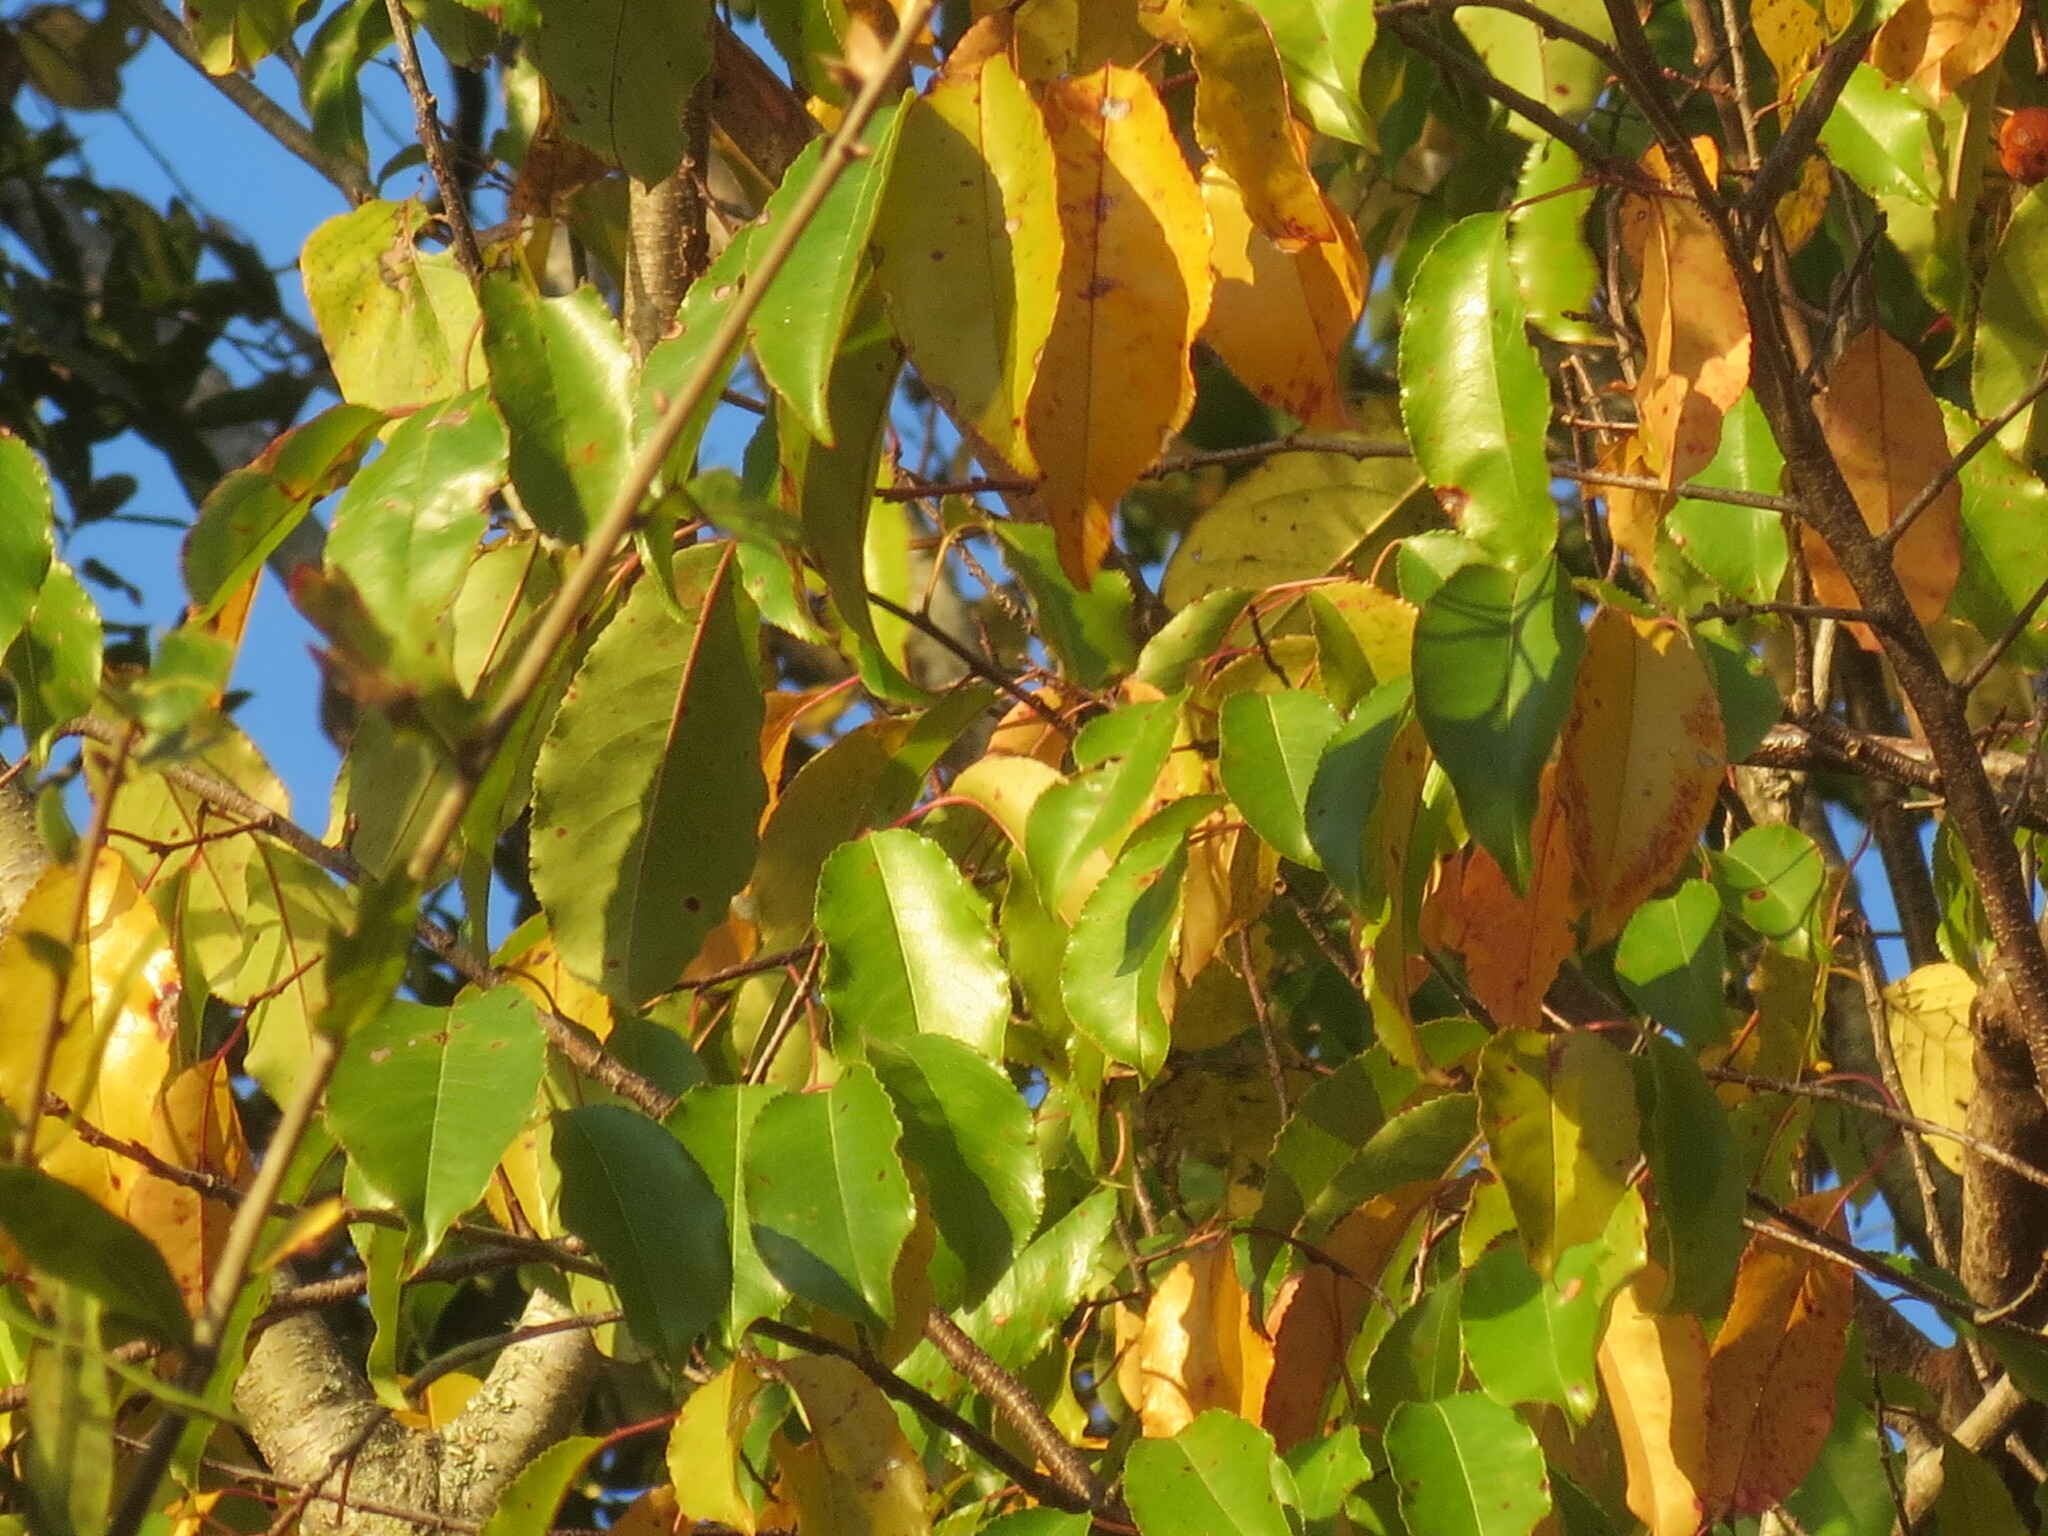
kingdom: Plantae
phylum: Tracheophyta
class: Magnoliopsida
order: Rosales
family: Rosaceae
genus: Prunus
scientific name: Prunus serotina
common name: Black cherry
